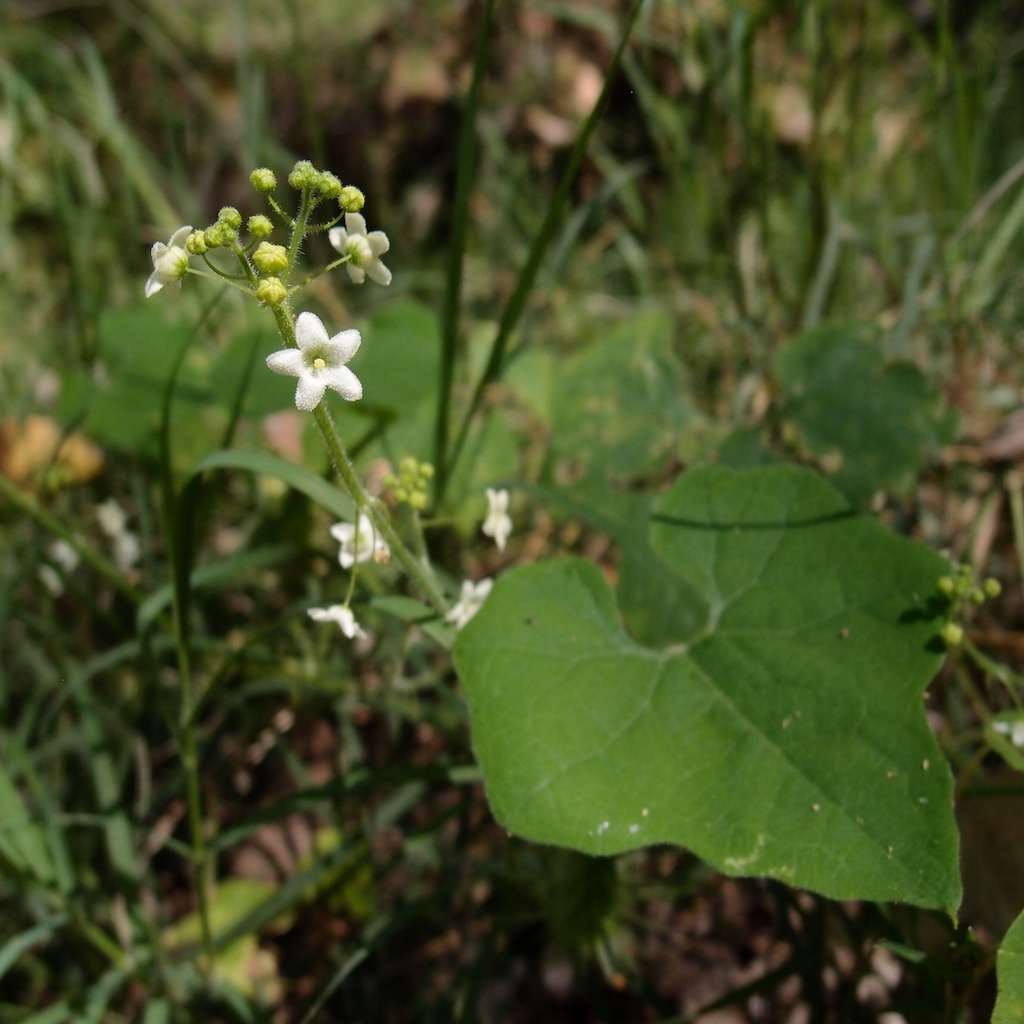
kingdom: Plantae
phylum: Tracheophyta
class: Magnoliopsida
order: Cucurbitales
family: Cucurbitaceae
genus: Echinopepon
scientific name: Echinopepon wrightii
